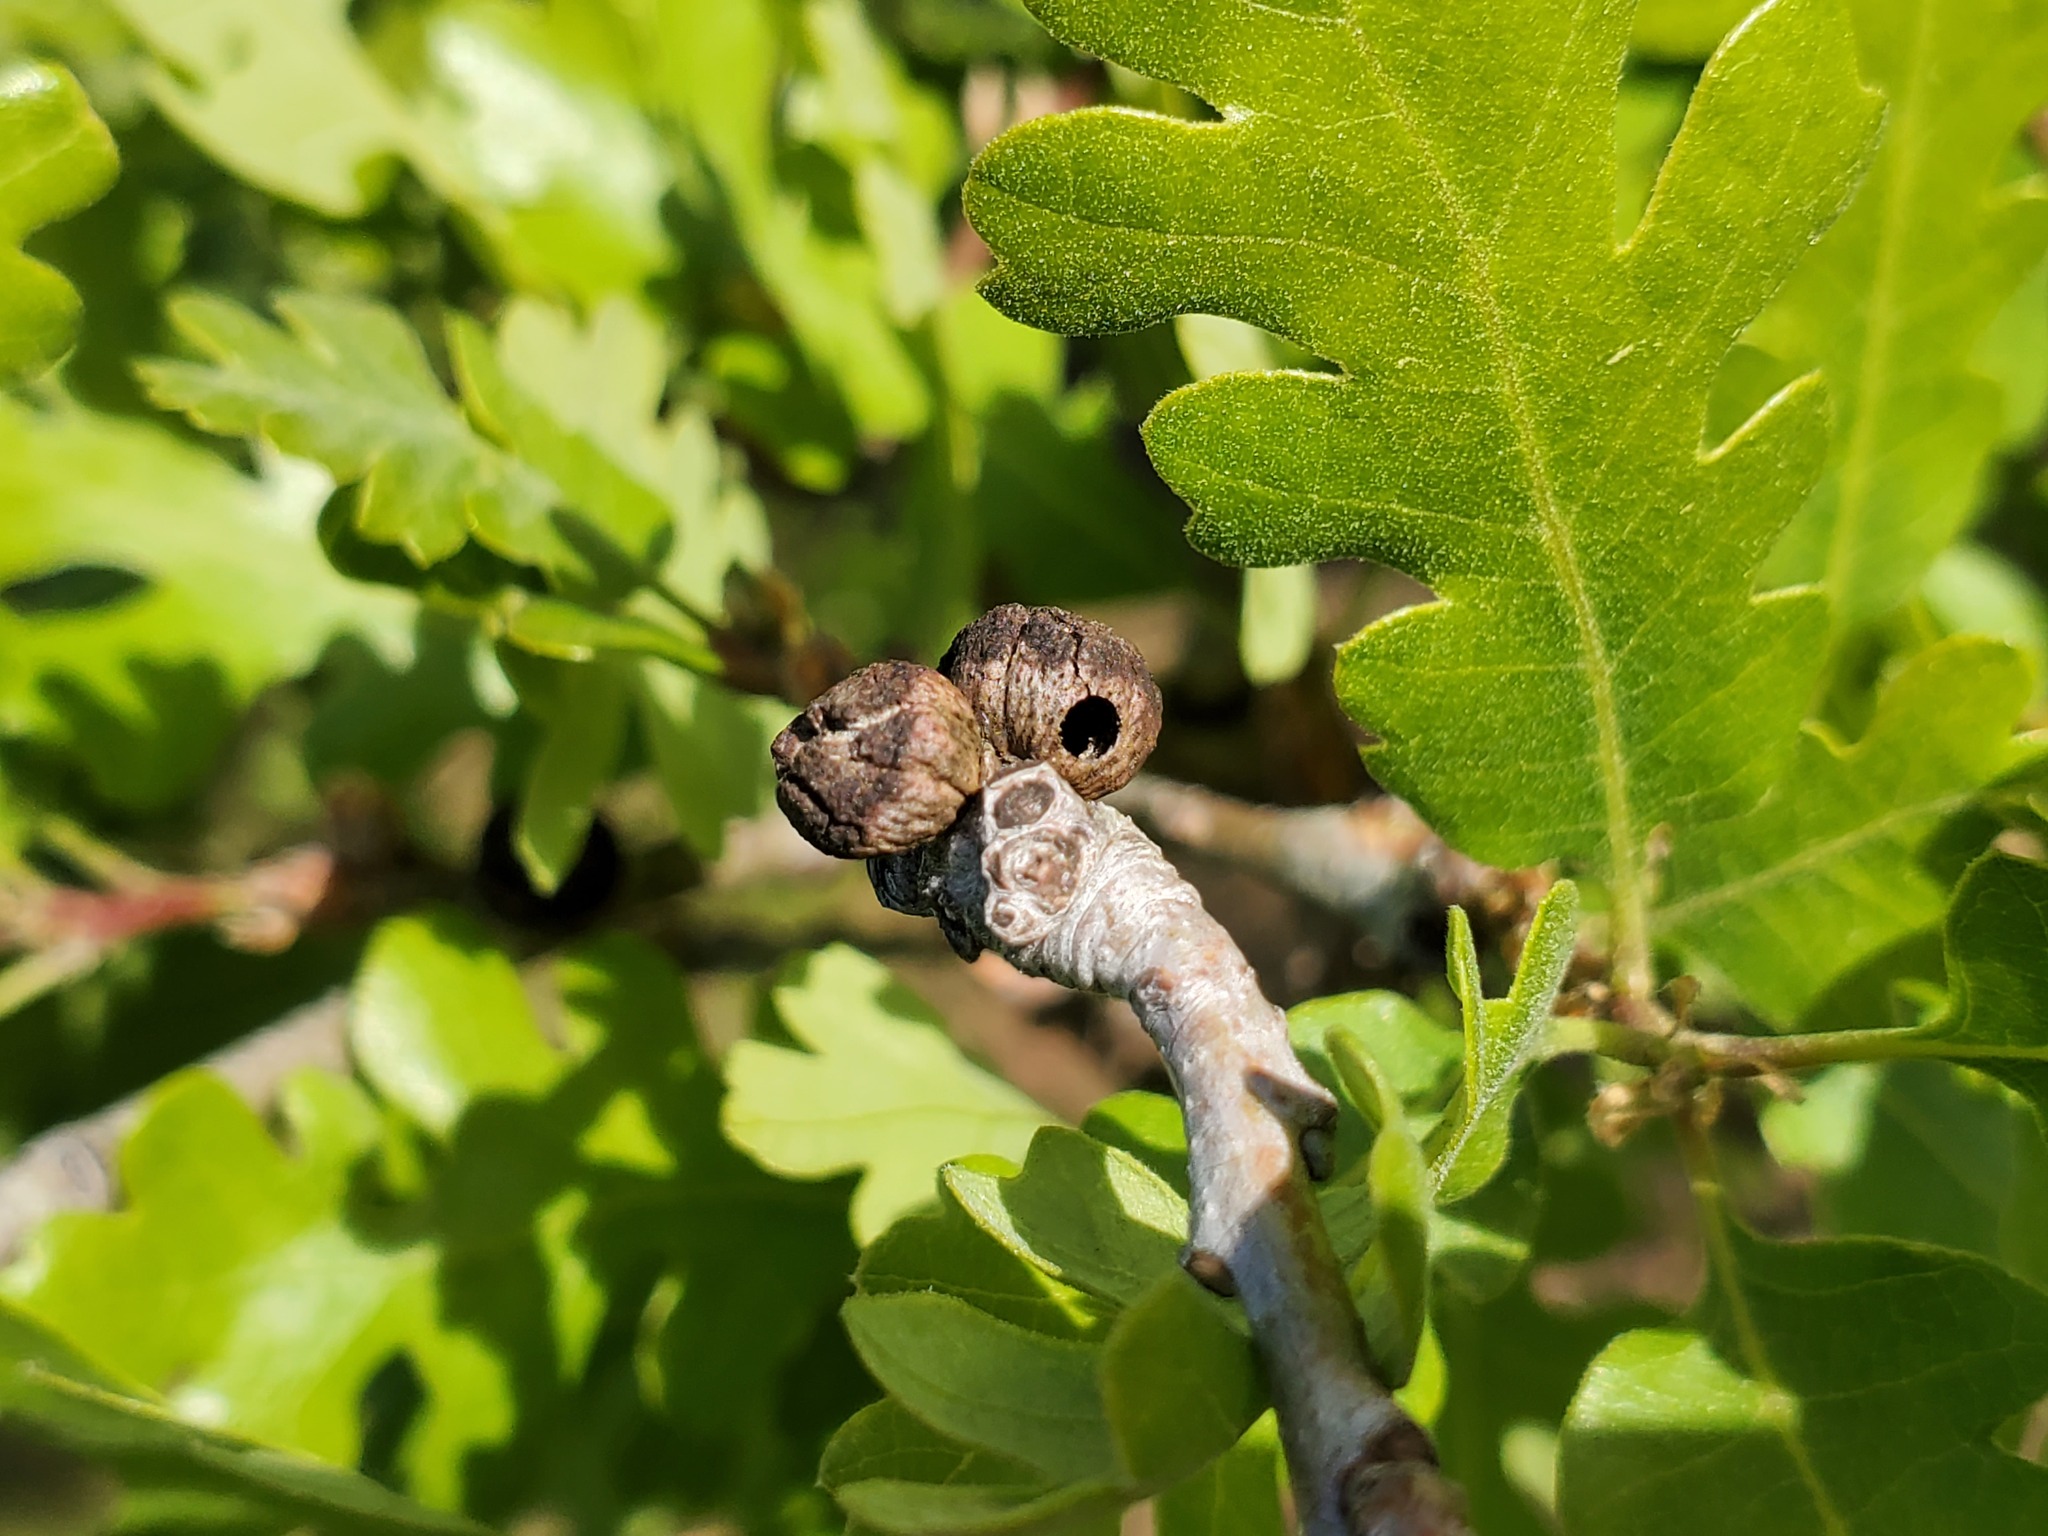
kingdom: Animalia
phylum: Arthropoda
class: Insecta
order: Hymenoptera
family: Cynipidae
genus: Disholcaspis
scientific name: Disholcaspis
